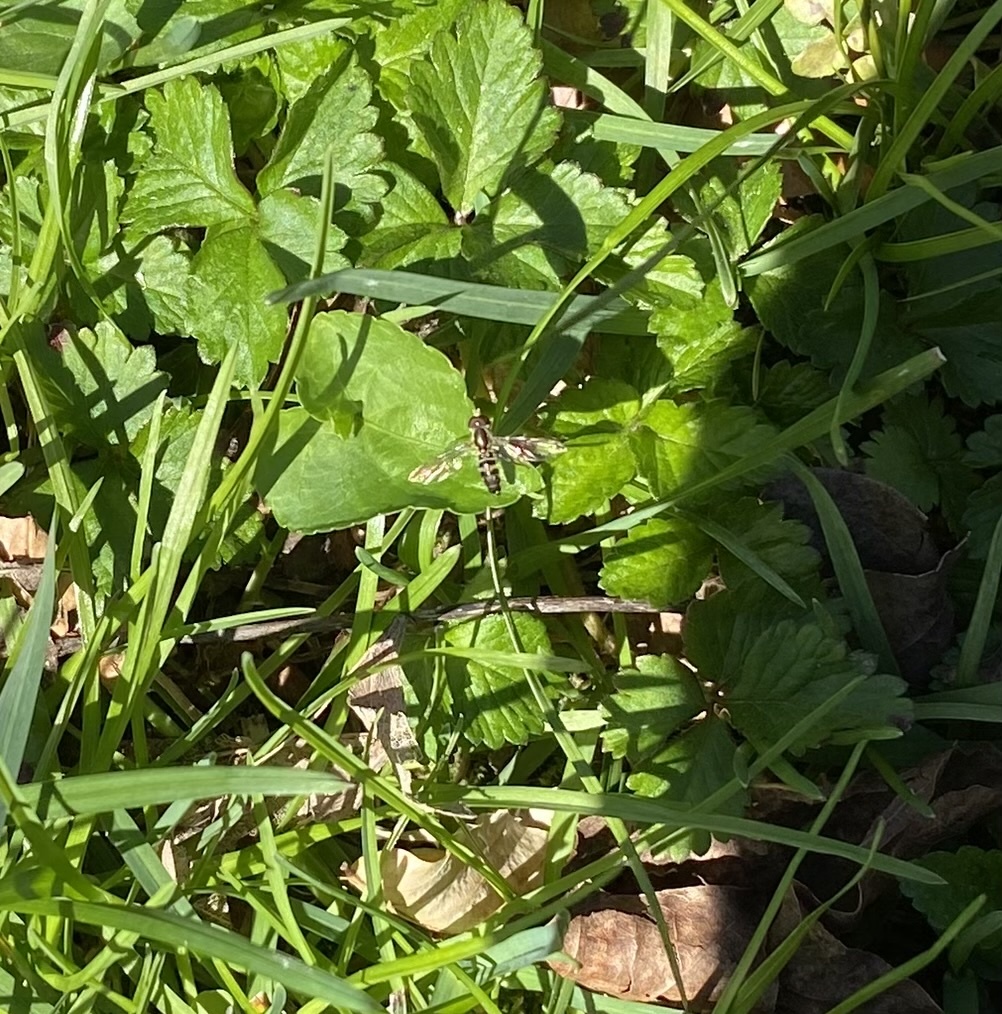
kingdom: Animalia
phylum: Arthropoda
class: Insecta
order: Diptera
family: Syrphidae
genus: Toxomerus
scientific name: Toxomerus geminatus
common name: Eastern calligrapher
